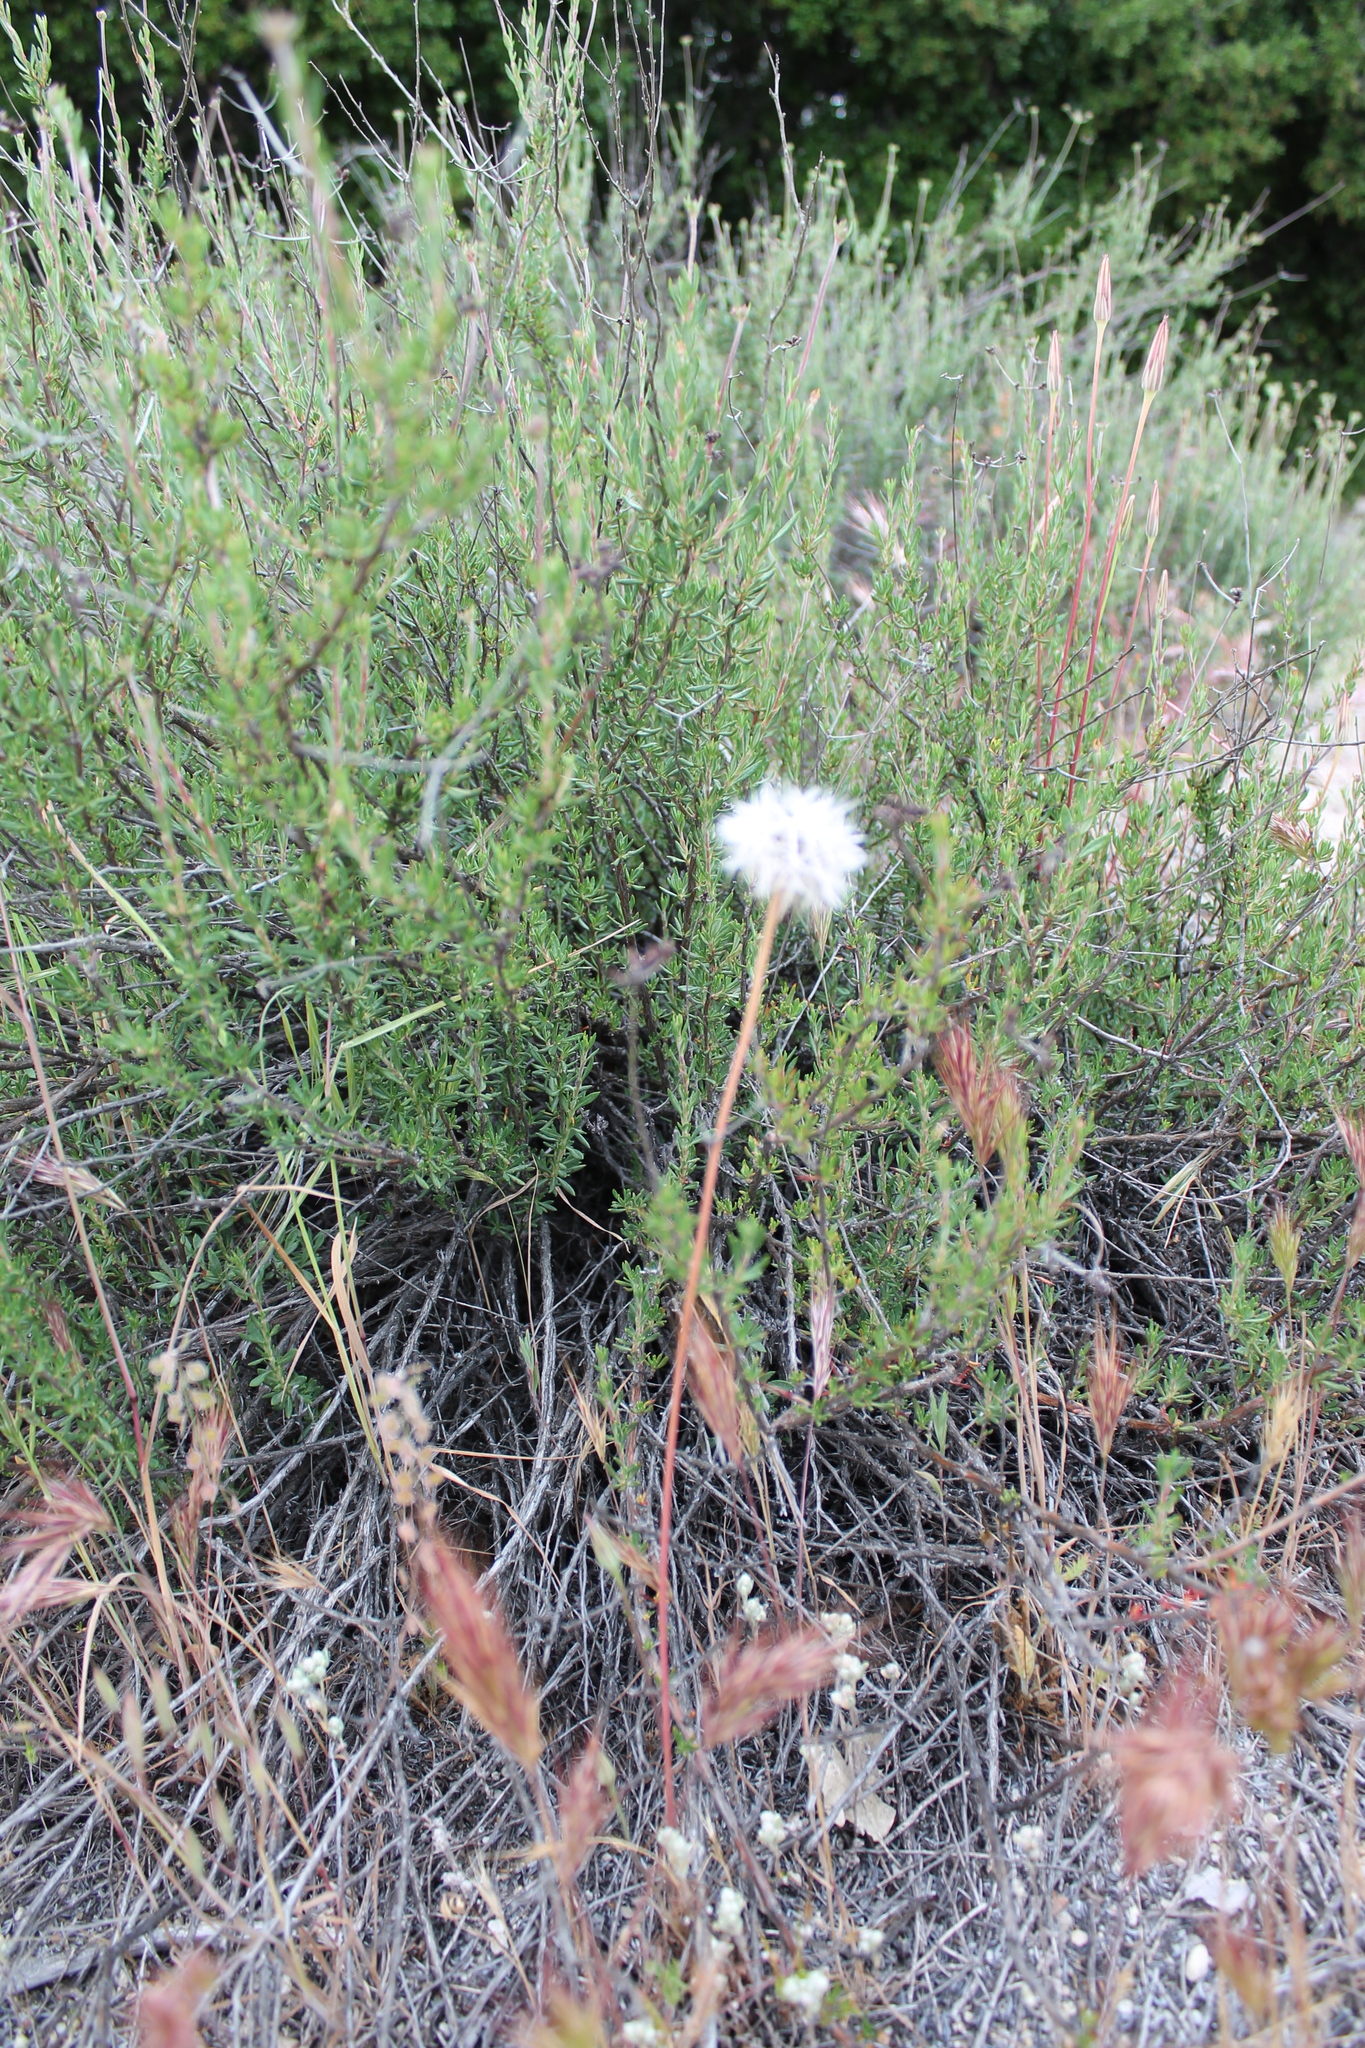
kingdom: Plantae
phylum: Tracheophyta
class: Magnoliopsida
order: Asterales
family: Asteraceae
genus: Microseris
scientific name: Microseris lindleyi
